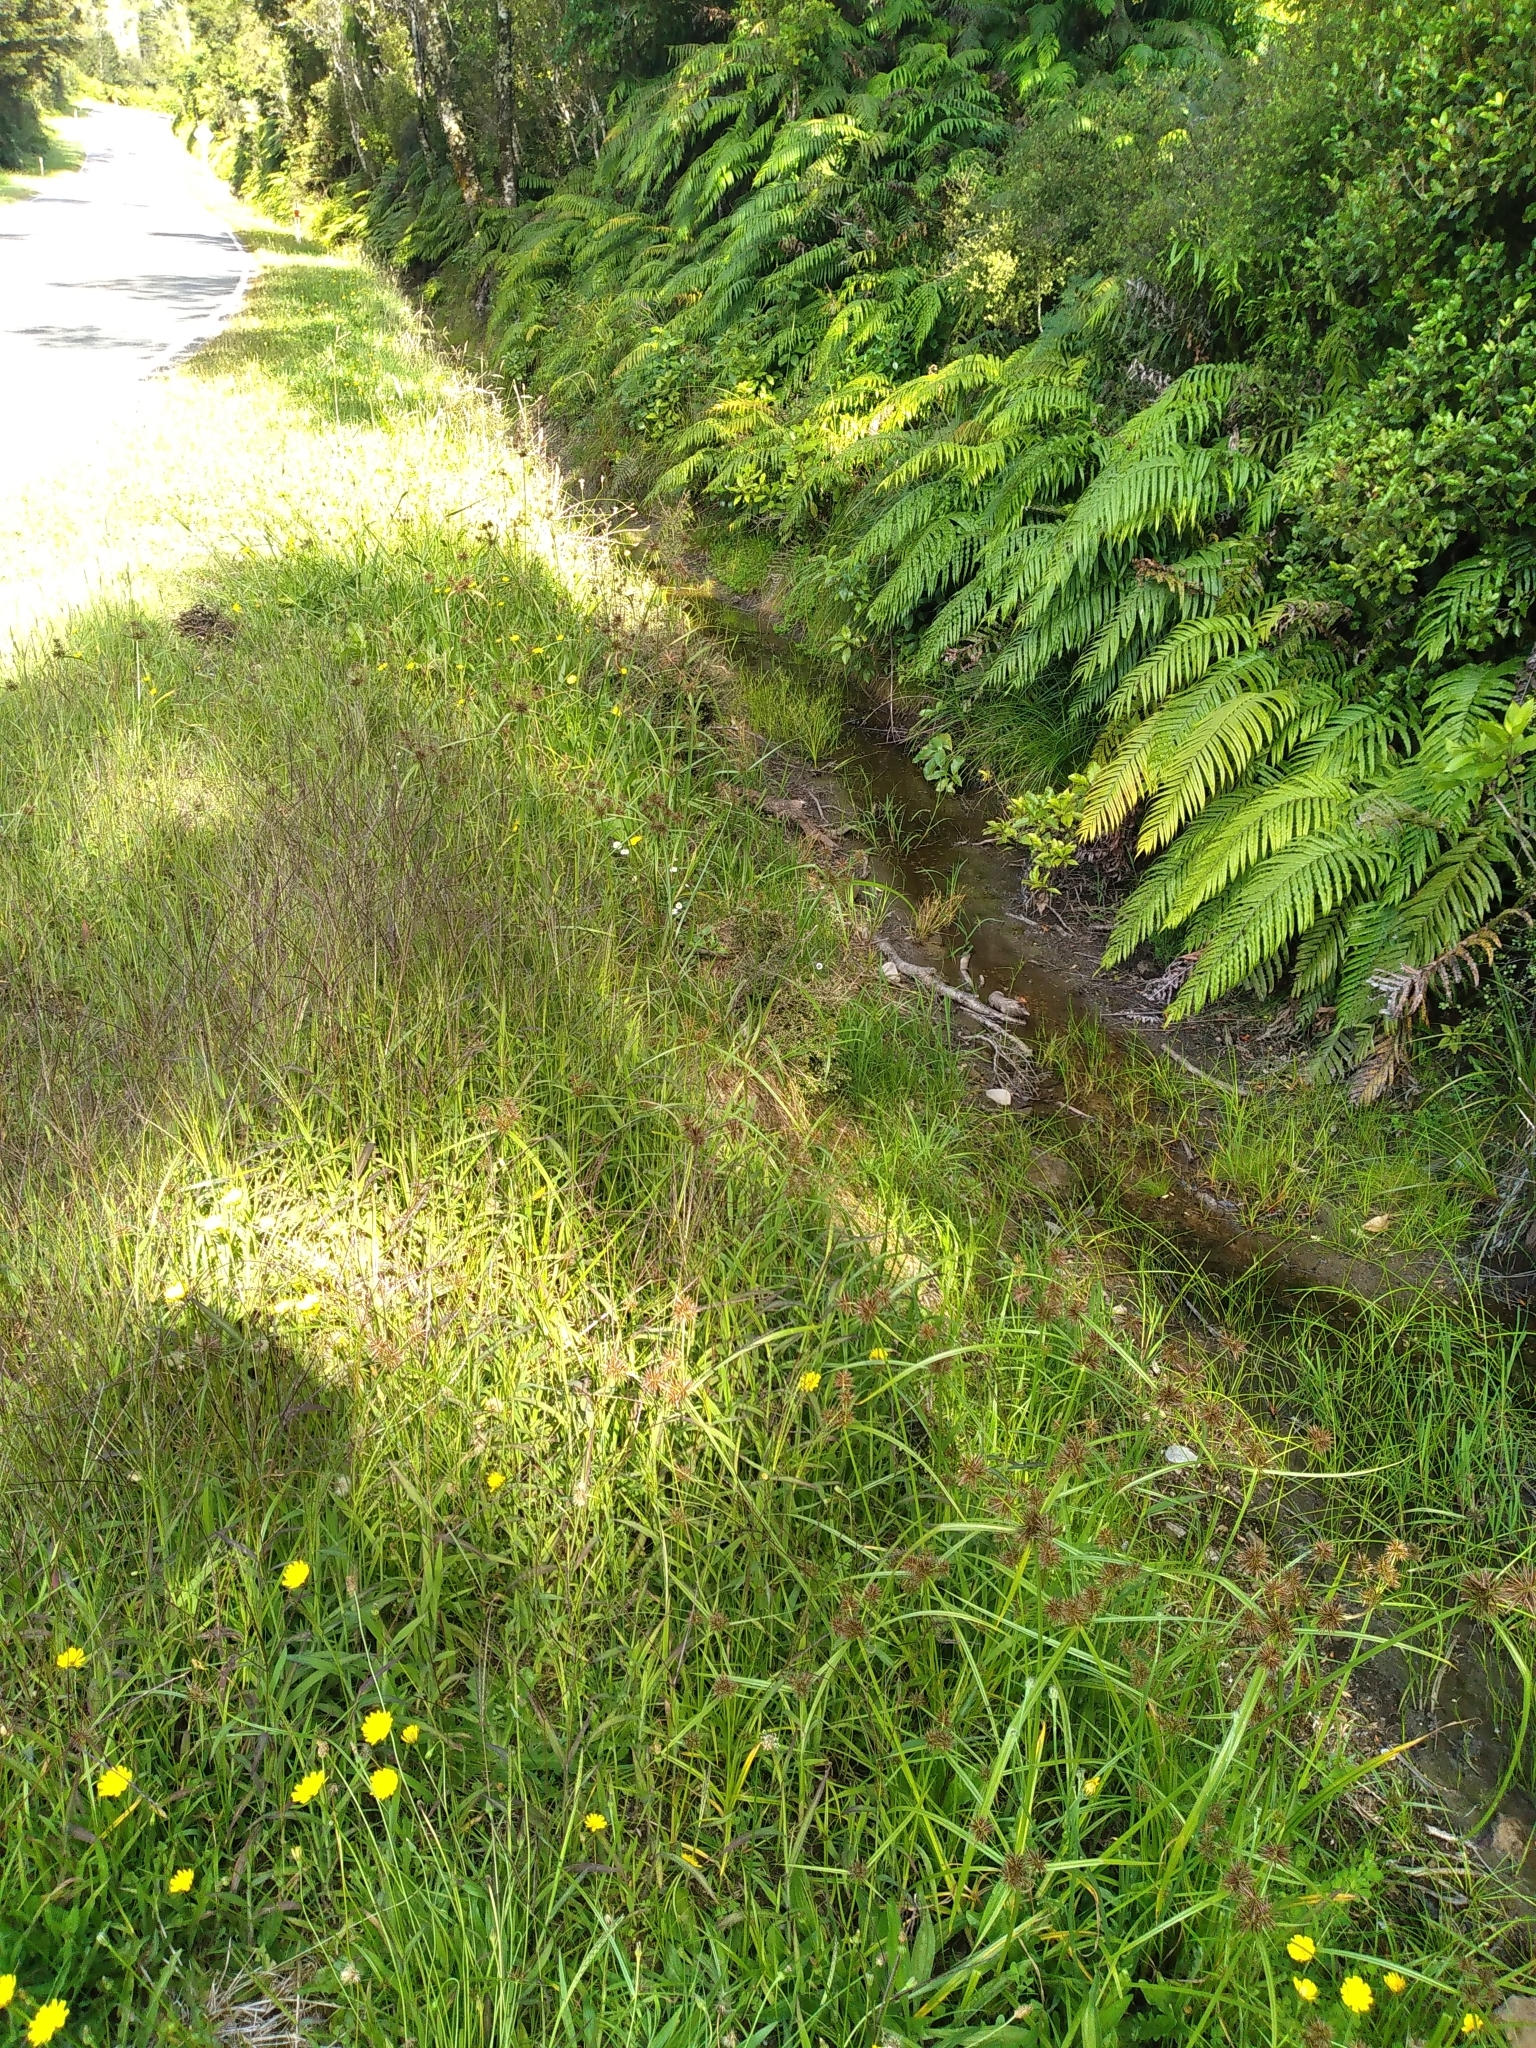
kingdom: Plantae
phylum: Tracheophyta
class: Liliopsida
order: Poales
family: Cyperaceae
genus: Cyperus
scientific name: Cyperus congestus
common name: Dense flat sedge
